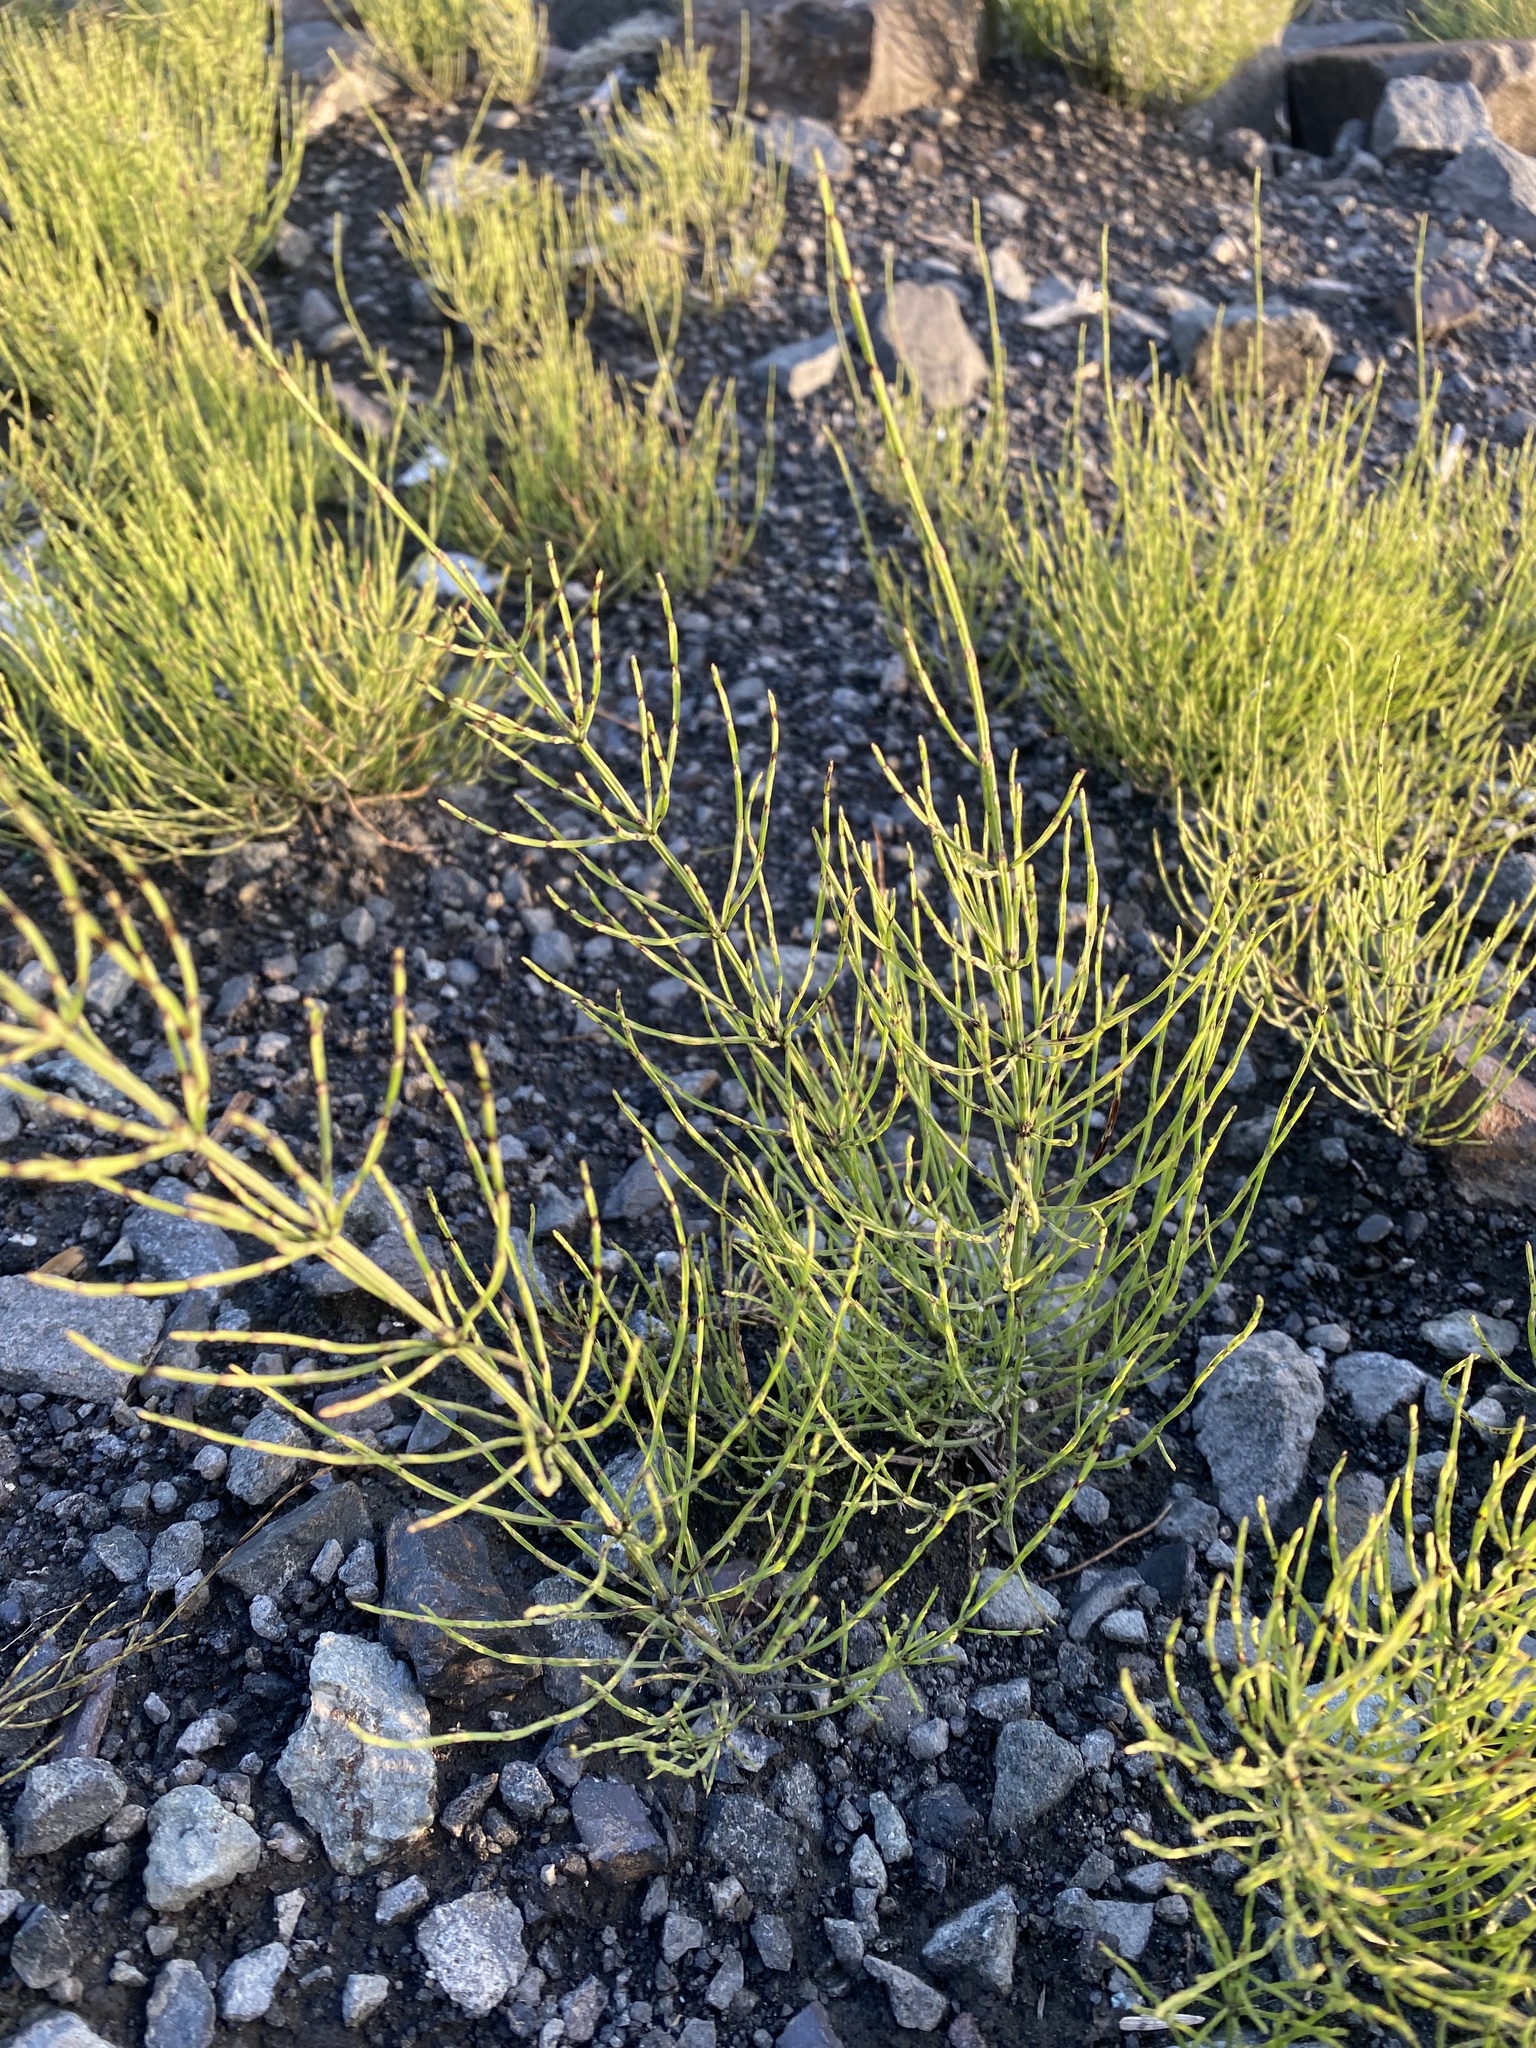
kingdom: Plantae
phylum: Tracheophyta
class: Polypodiopsida
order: Equisetales
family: Equisetaceae
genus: Equisetum
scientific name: Equisetum arvense
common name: Field horsetail
